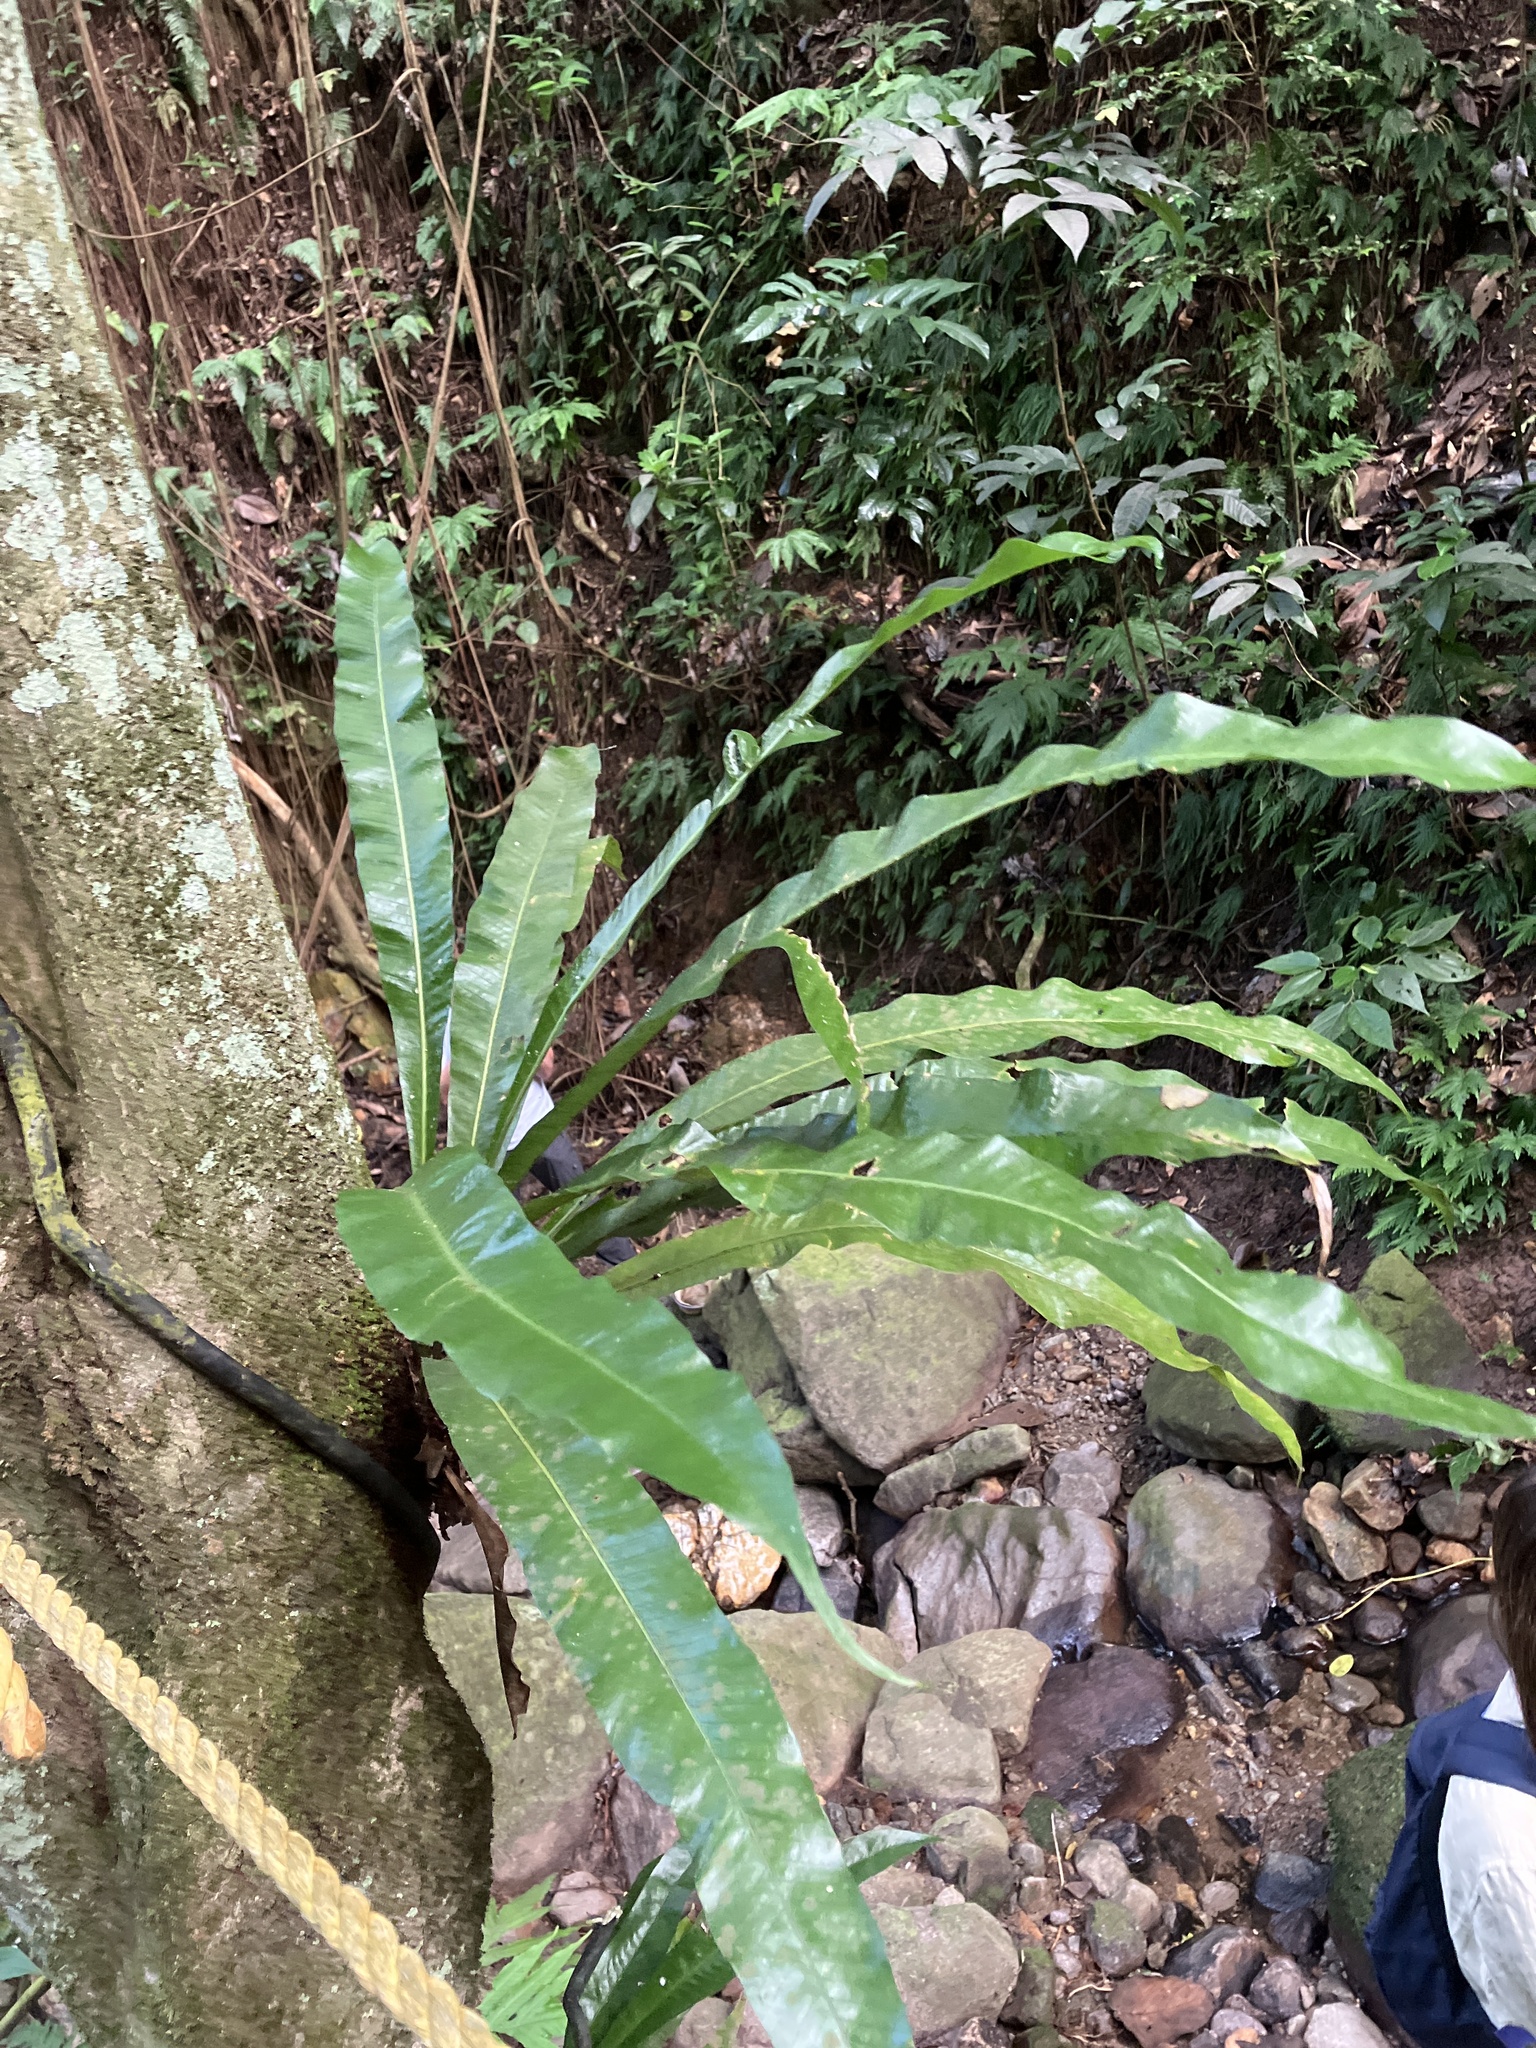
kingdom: Plantae
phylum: Tracheophyta
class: Polypodiopsida
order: Polypodiales
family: Polypodiaceae
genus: Campyloneurum
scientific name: Campyloneurum phyllitidis
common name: Cow-tongue fern
